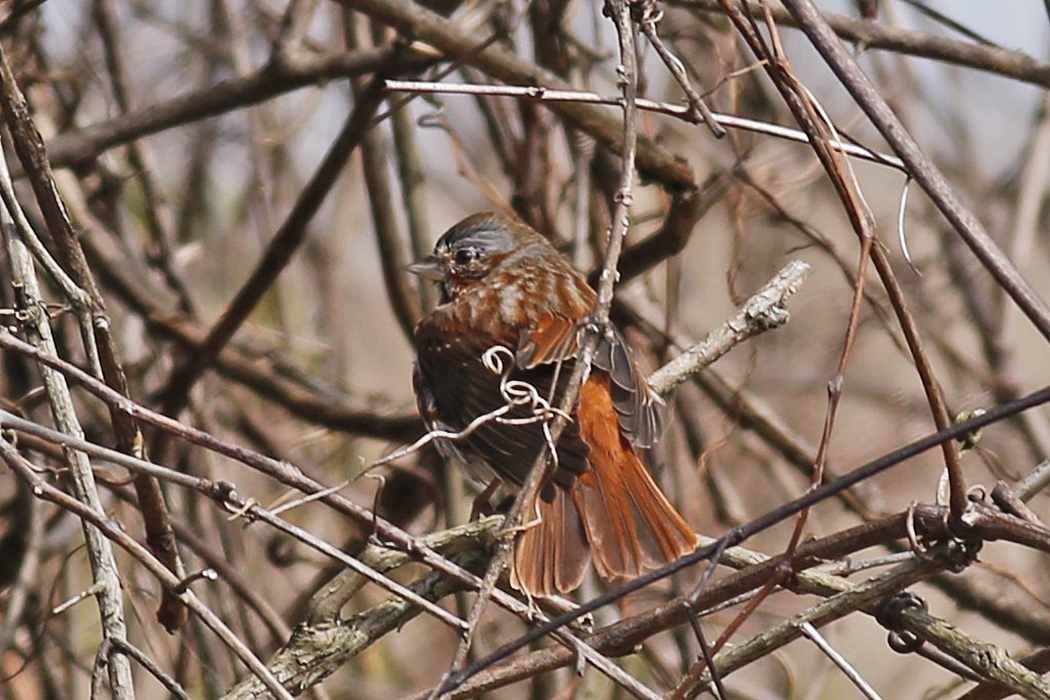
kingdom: Animalia
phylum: Chordata
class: Aves
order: Passeriformes
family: Passerellidae
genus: Passerella
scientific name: Passerella iliaca
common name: Fox sparrow
